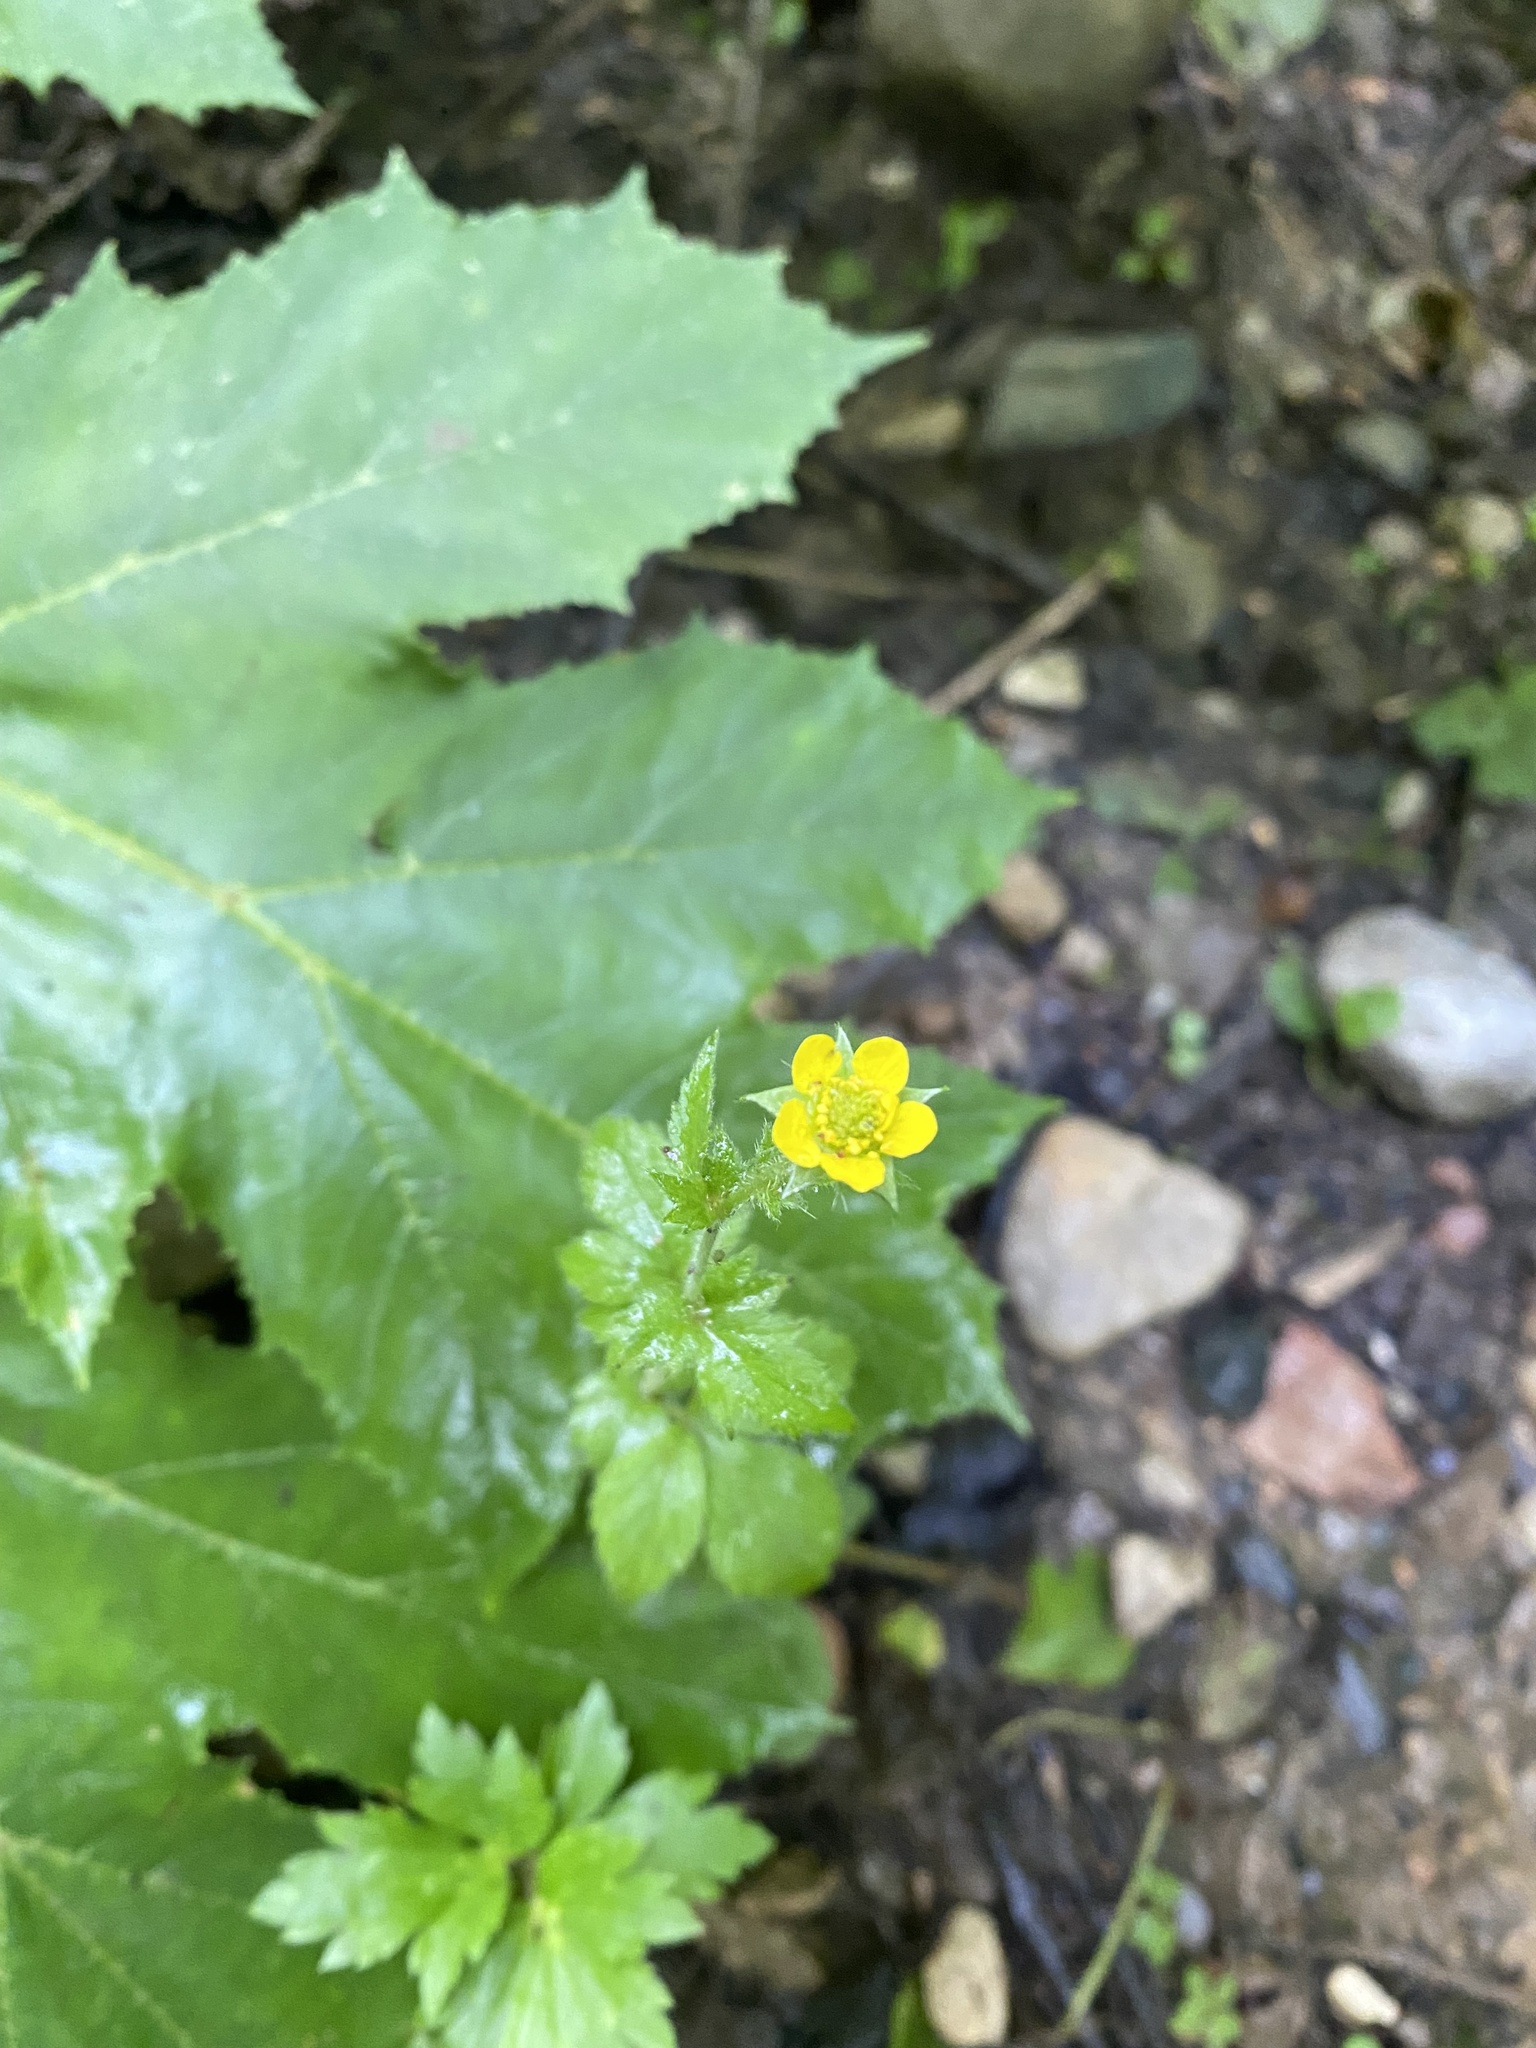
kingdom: Plantae
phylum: Tracheophyta
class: Magnoliopsida
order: Rosales
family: Rosaceae
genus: Geum
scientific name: Geum urbanum
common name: Wood avens
